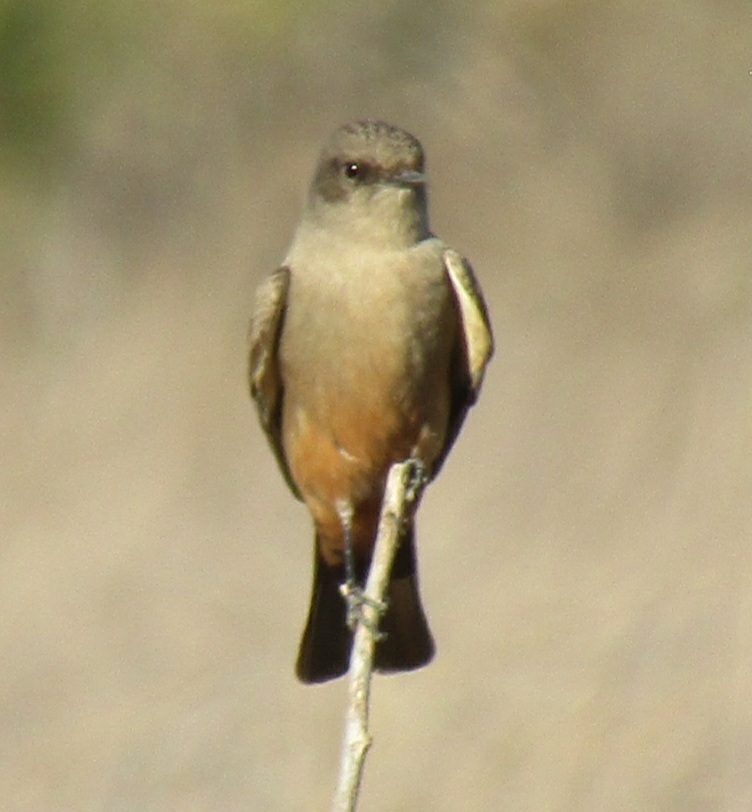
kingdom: Animalia
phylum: Chordata
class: Aves
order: Passeriformes
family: Tyrannidae
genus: Sayornis
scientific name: Sayornis saya
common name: Say's phoebe
